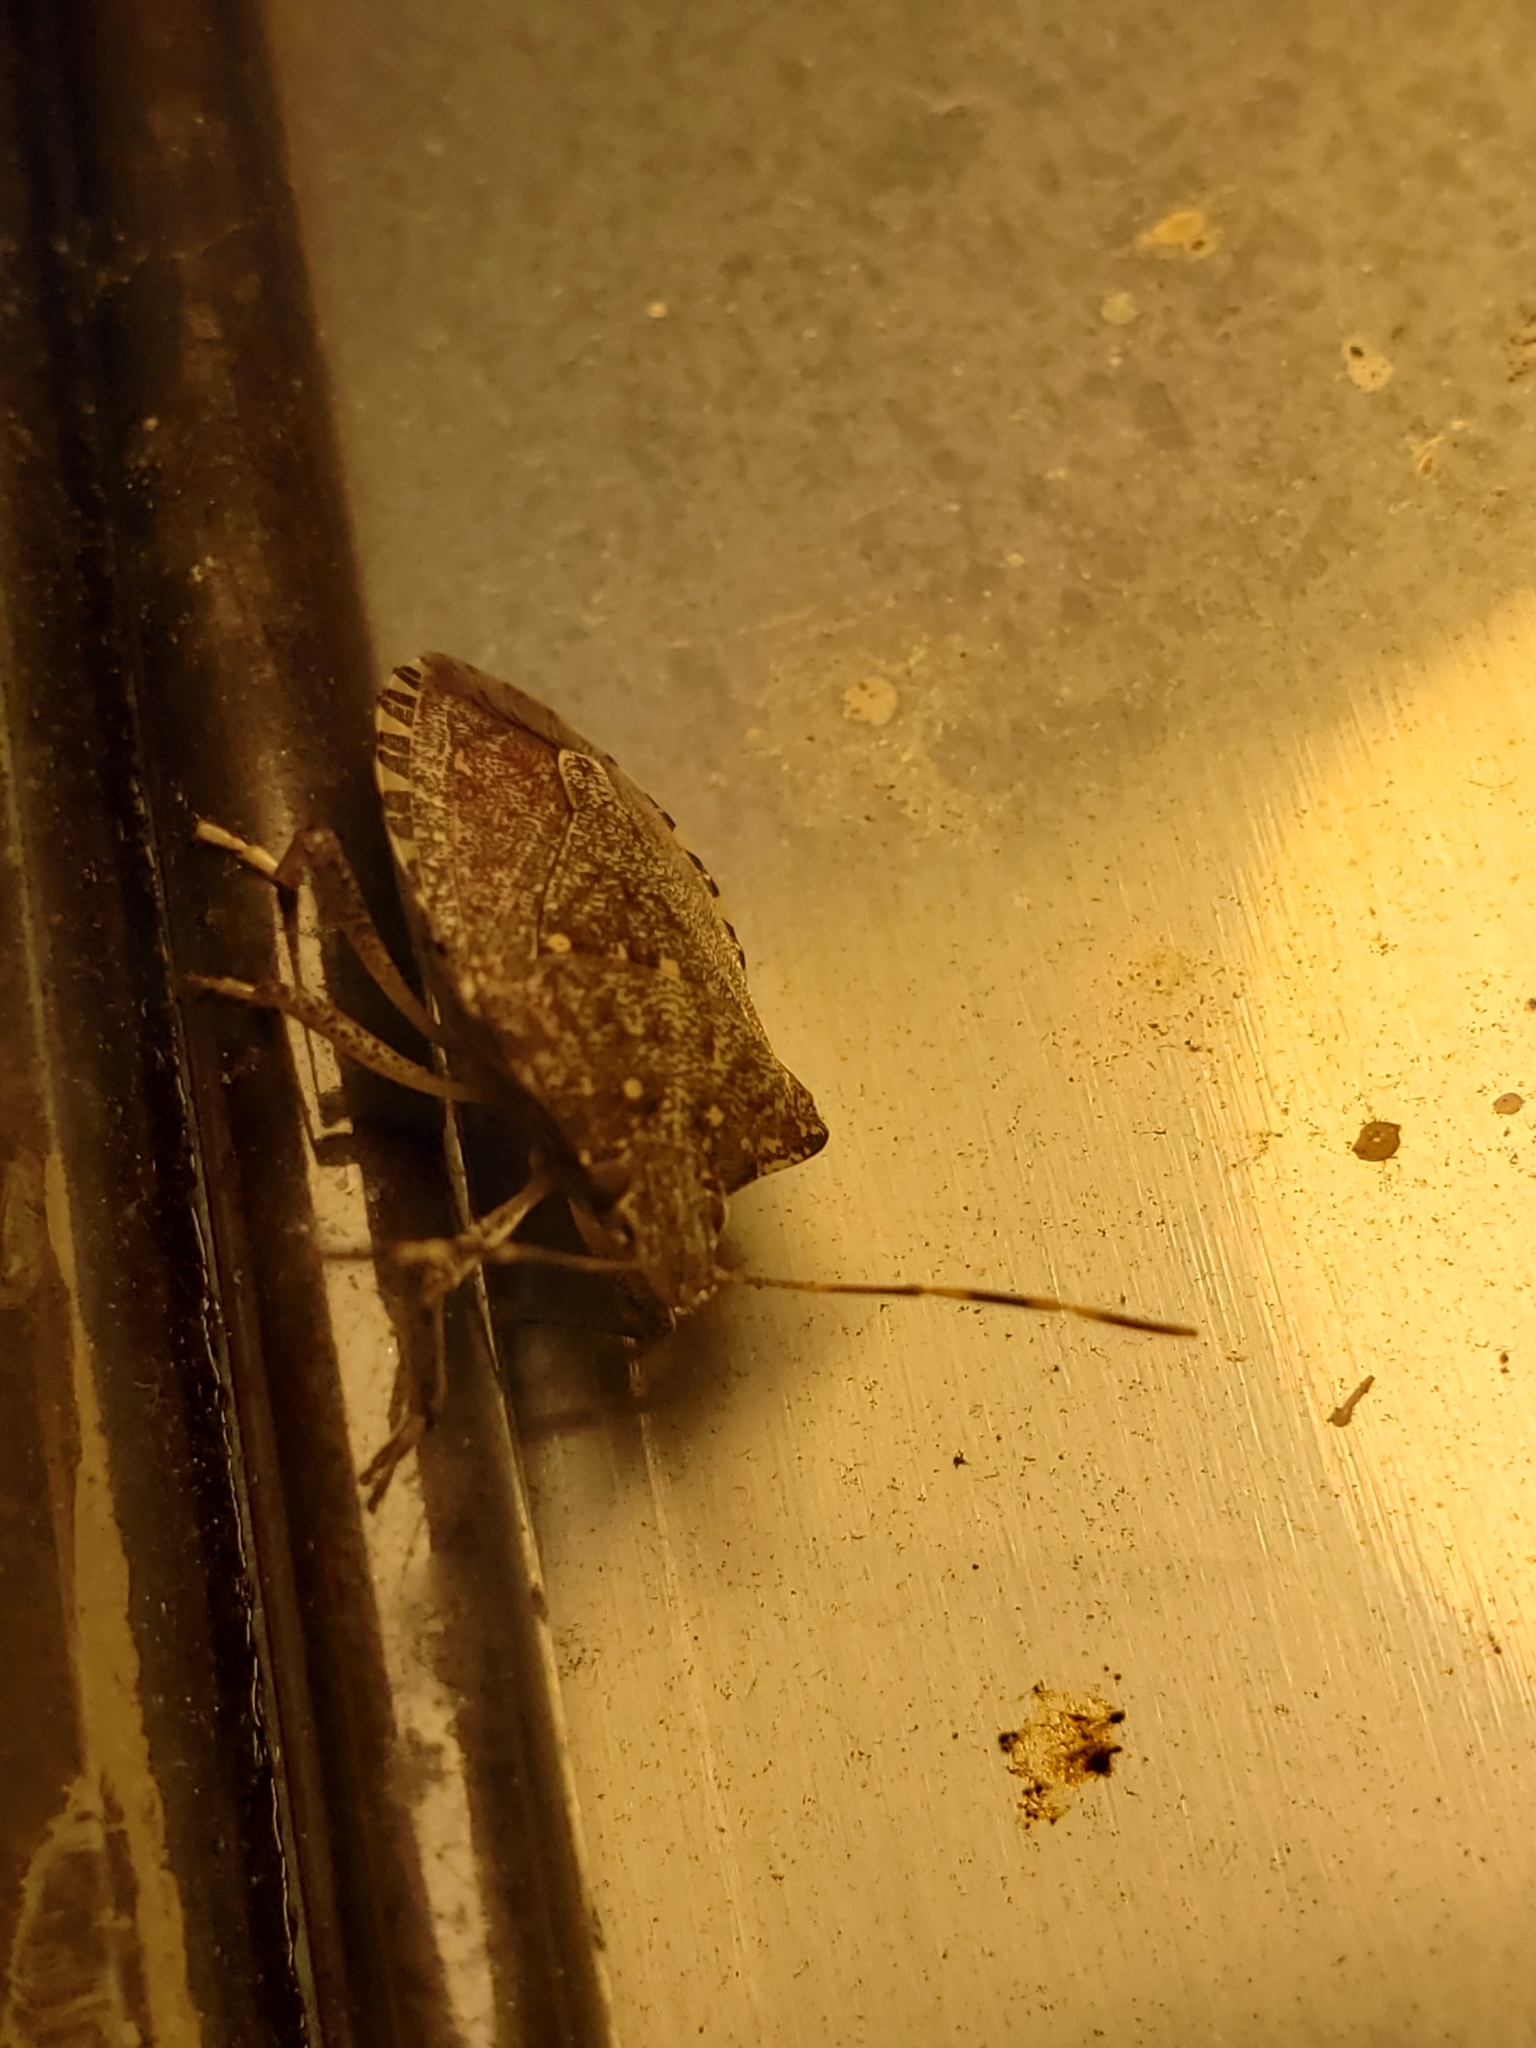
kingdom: Animalia
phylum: Arthropoda
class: Insecta
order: Hemiptera
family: Pentatomidae
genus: Halyomorpha
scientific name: Halyomorpha halys
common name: Brown marmorated stink bug
